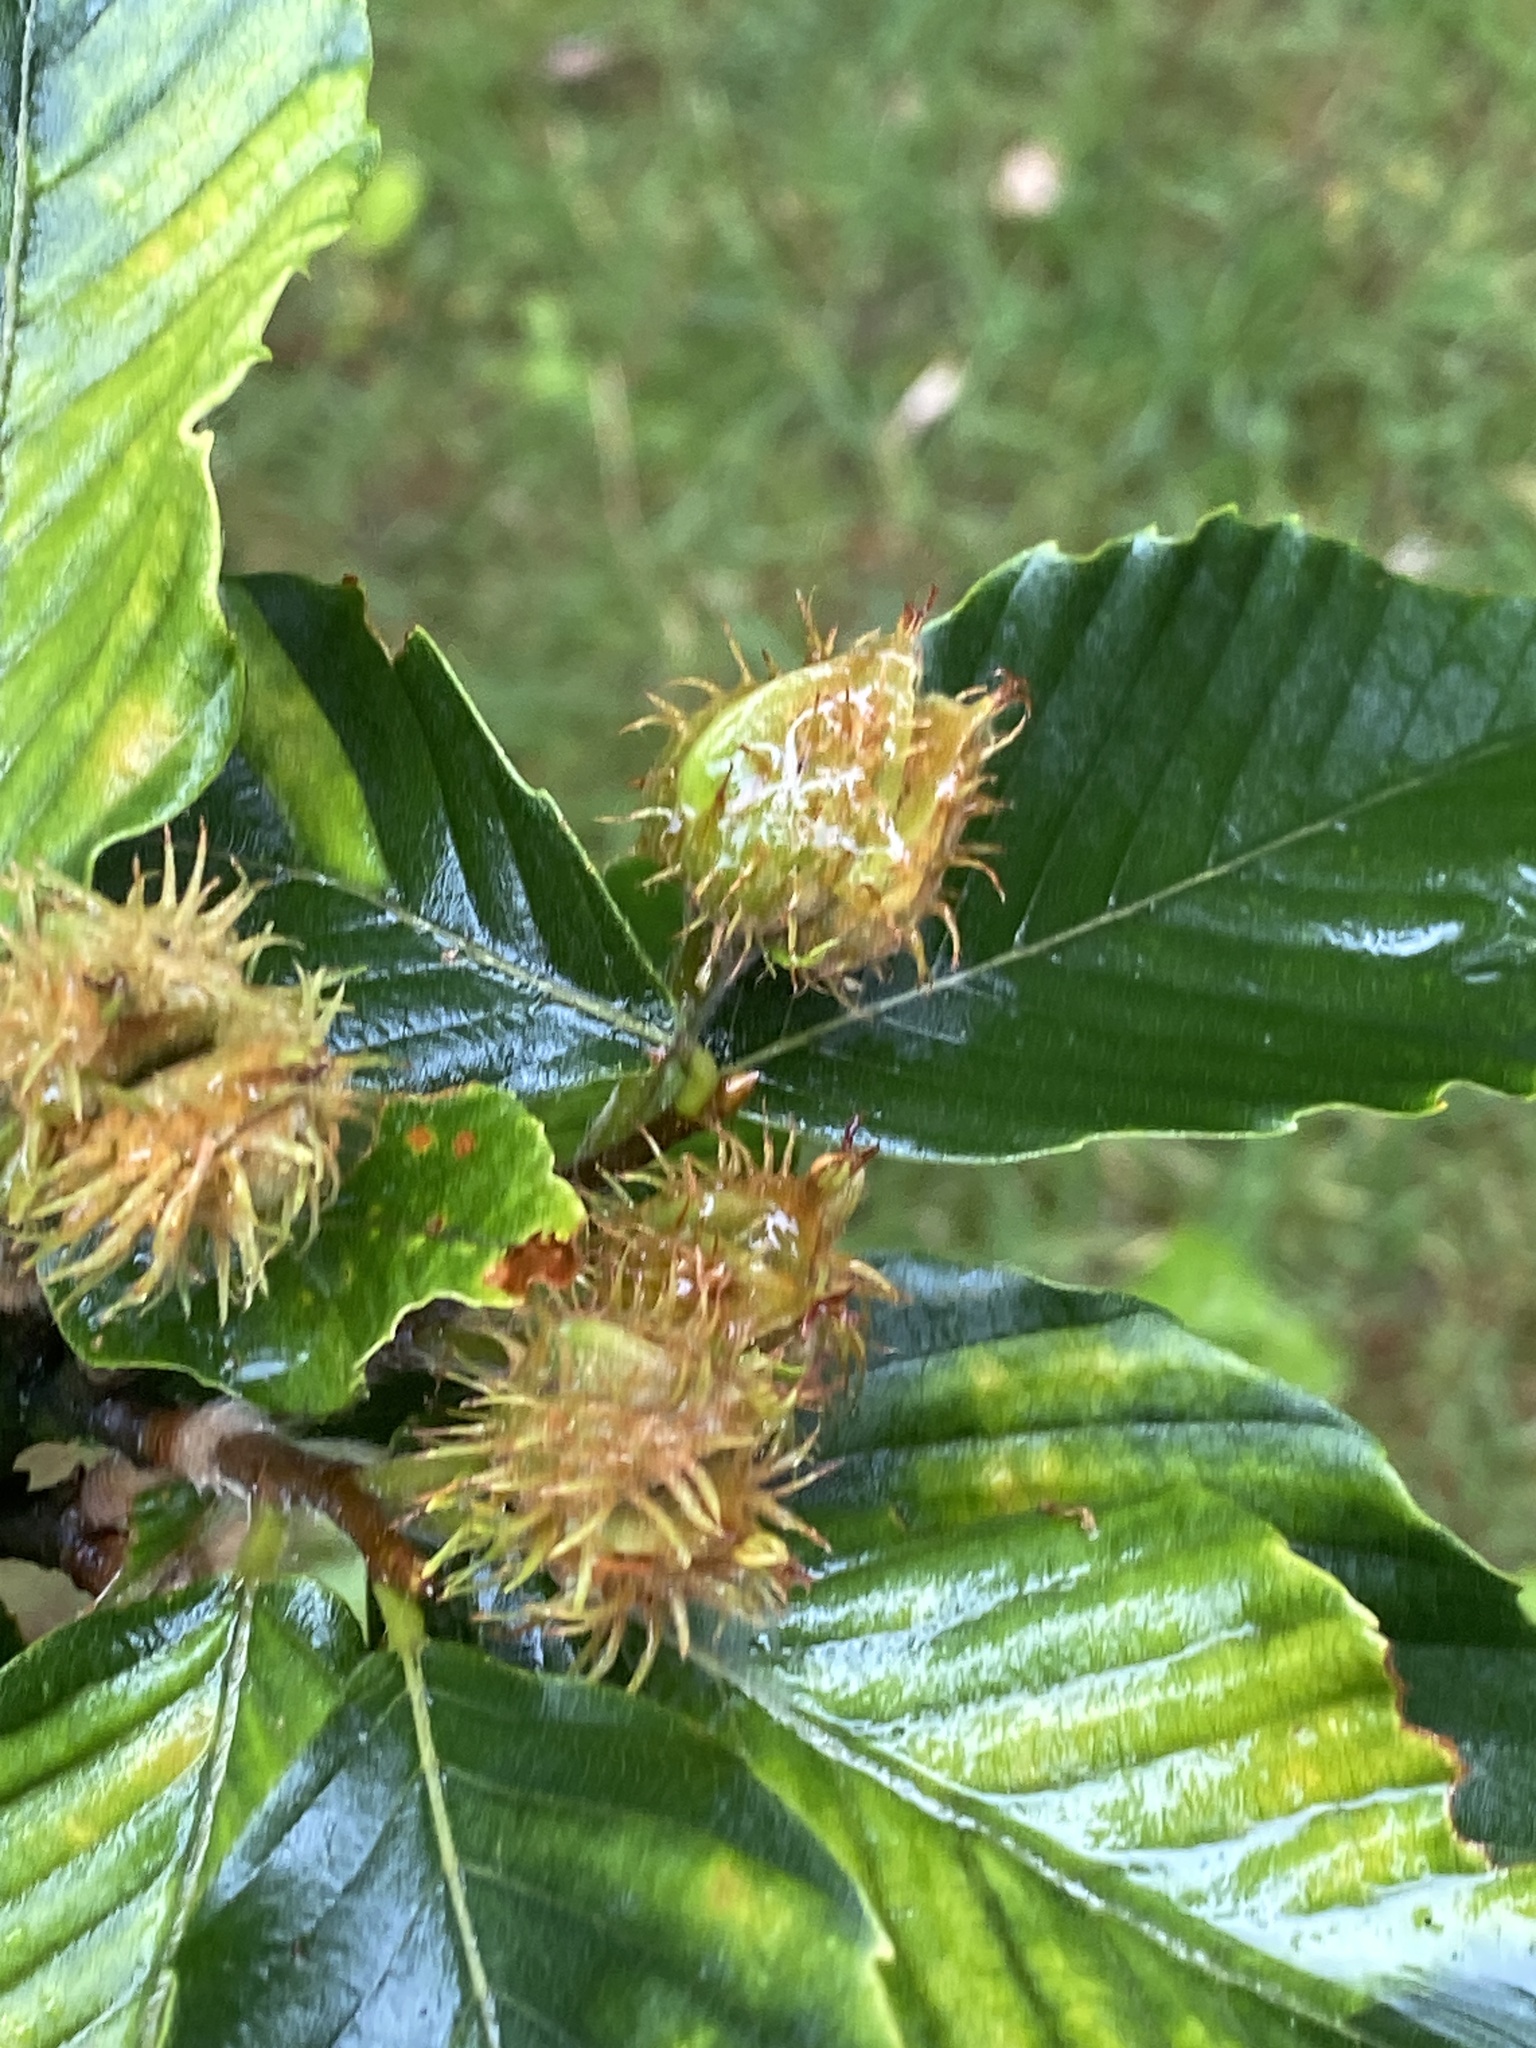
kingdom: Plantae
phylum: Tracheophyta
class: Magnoliopsida
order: Fagales
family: Fagaceae
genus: Fagus
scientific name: Fagus grandifolia
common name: American beech
